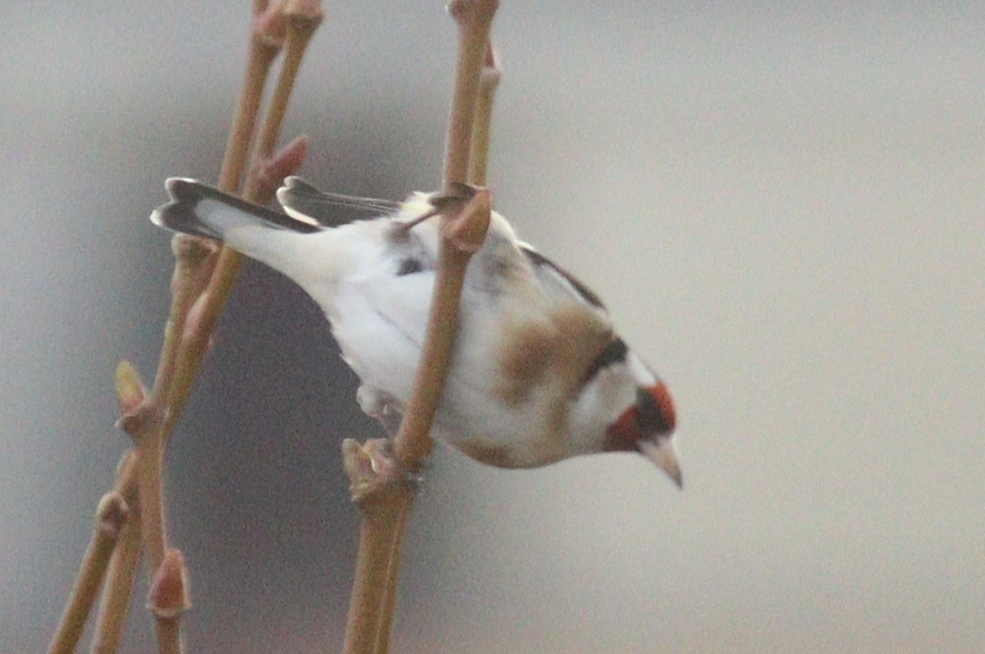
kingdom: Animalia
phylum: Chordata
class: Aves
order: Passeriformes
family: Fringillidae
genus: Carduelis
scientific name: Carduelis carduelis
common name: European goldfinch
